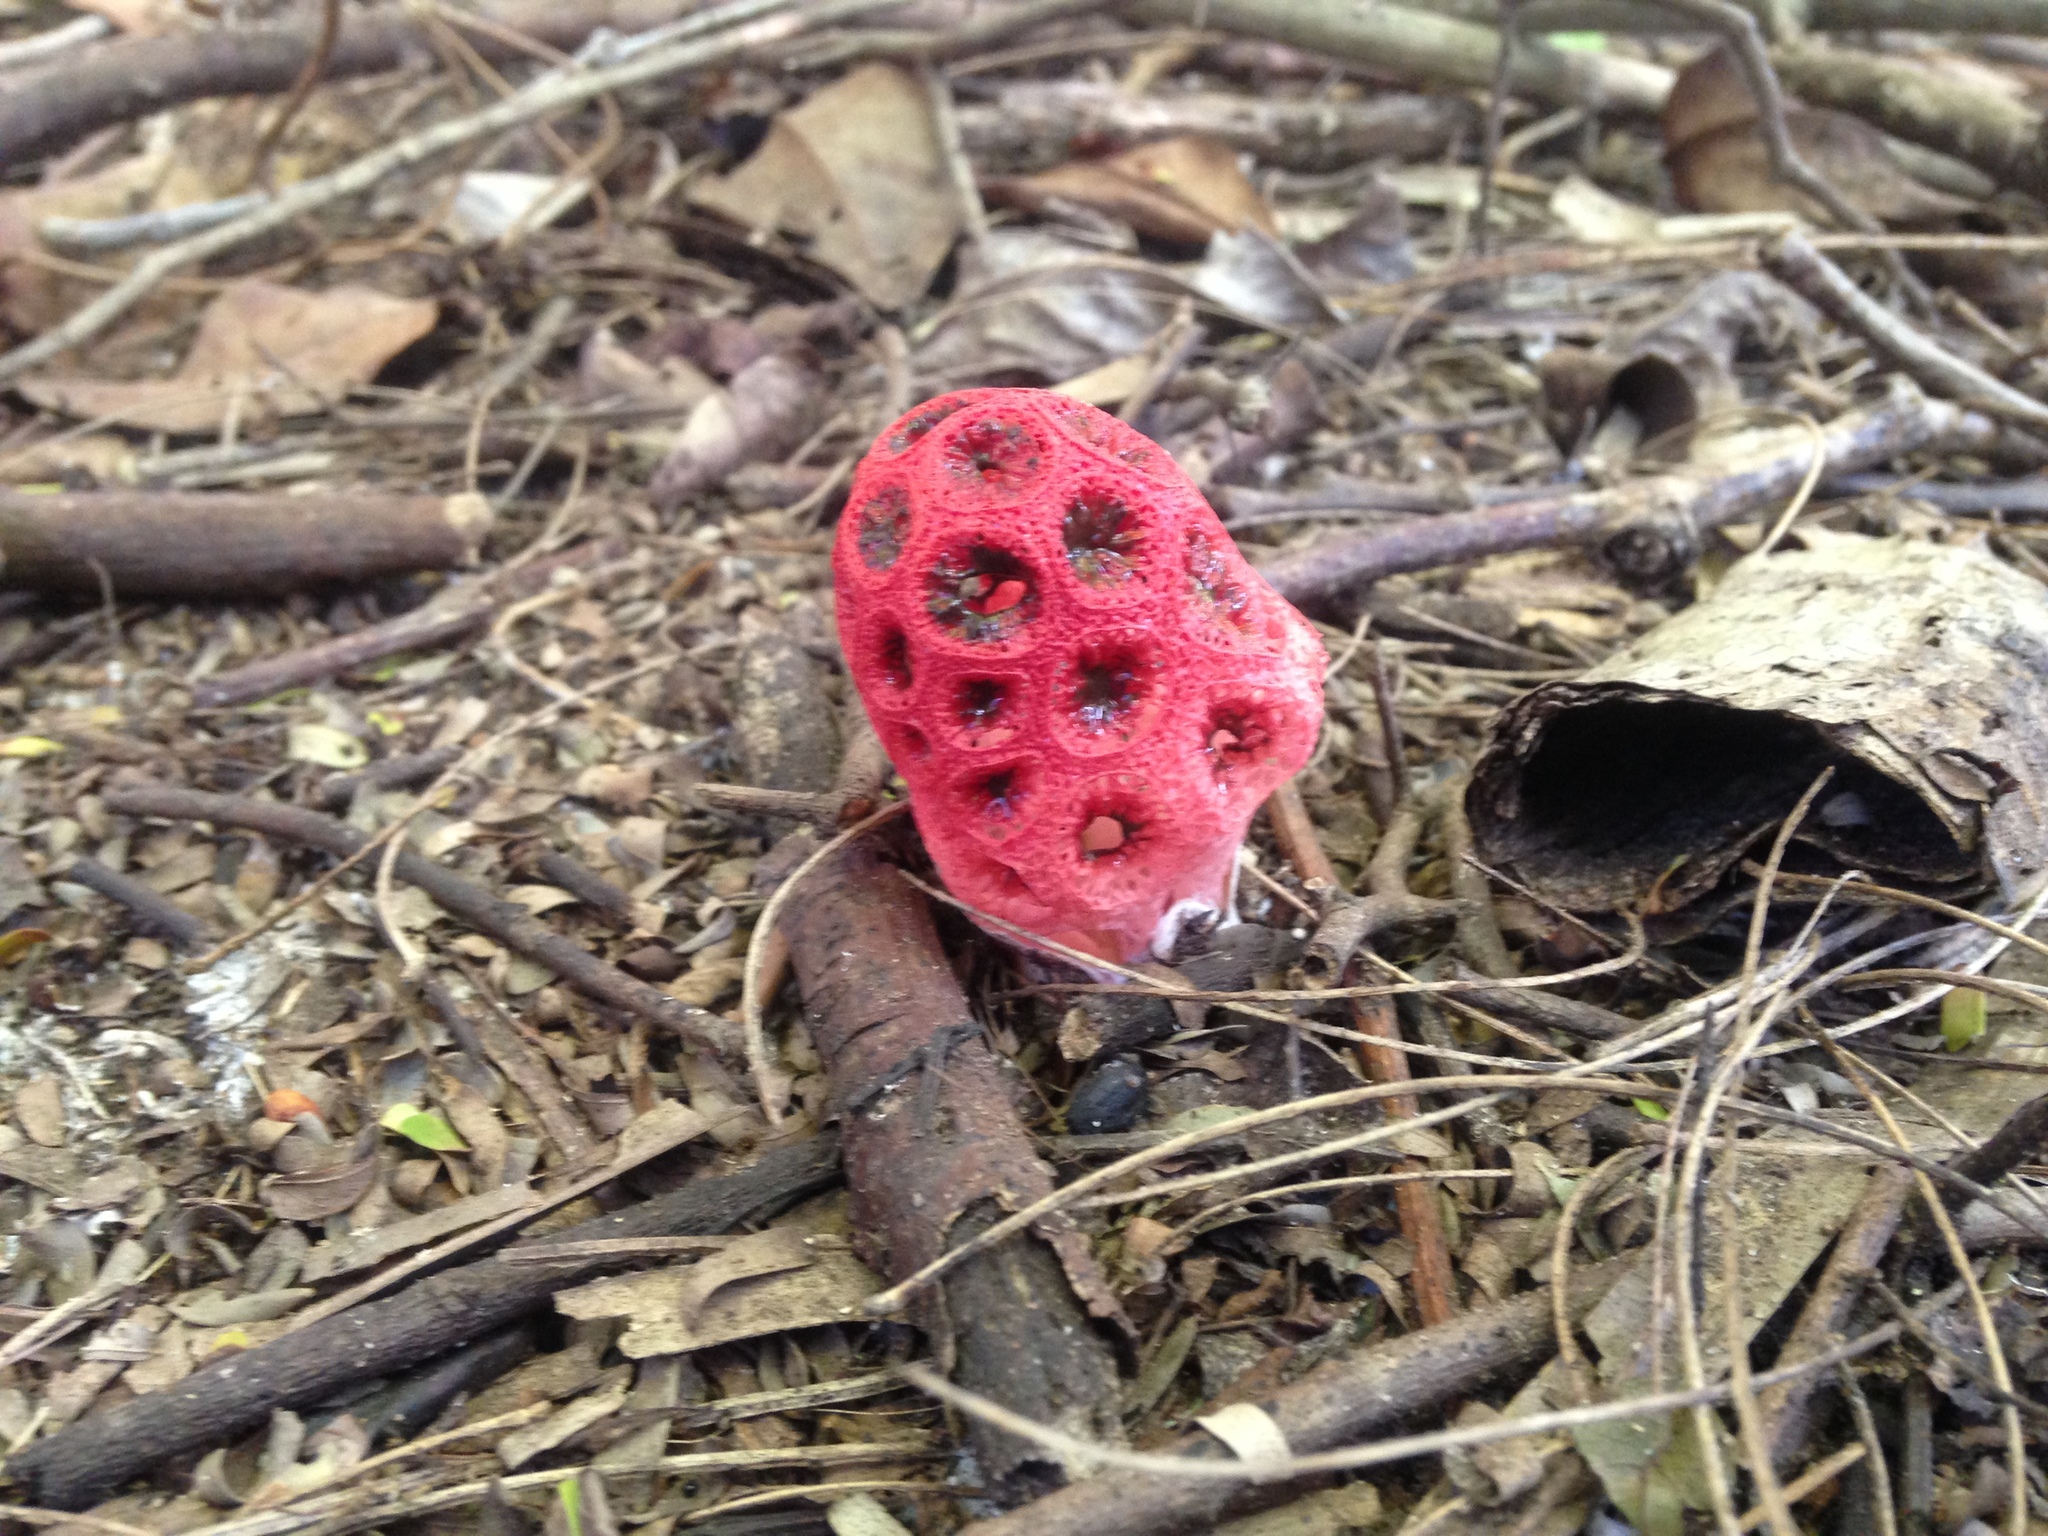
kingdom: Fungi
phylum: Basidiomycota
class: Agaricomycetes
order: Phallales
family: Phallaceae
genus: Clathrus
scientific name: Clathrus crispatus
